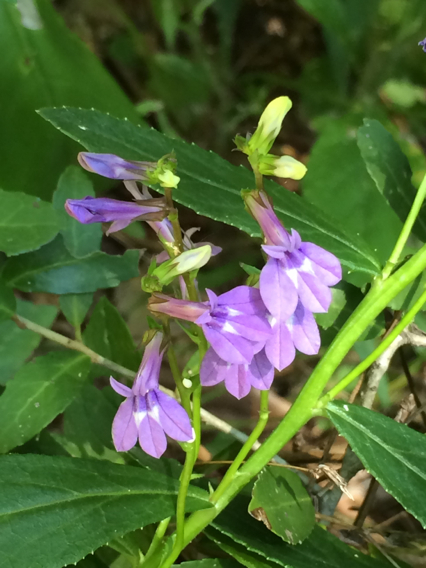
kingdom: Plantae
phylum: Tracheophyta
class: Magnoliopsida
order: Asterales
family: Campanulaceae
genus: Lobelia
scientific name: Lobelia puberula
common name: Purple dewdrop
